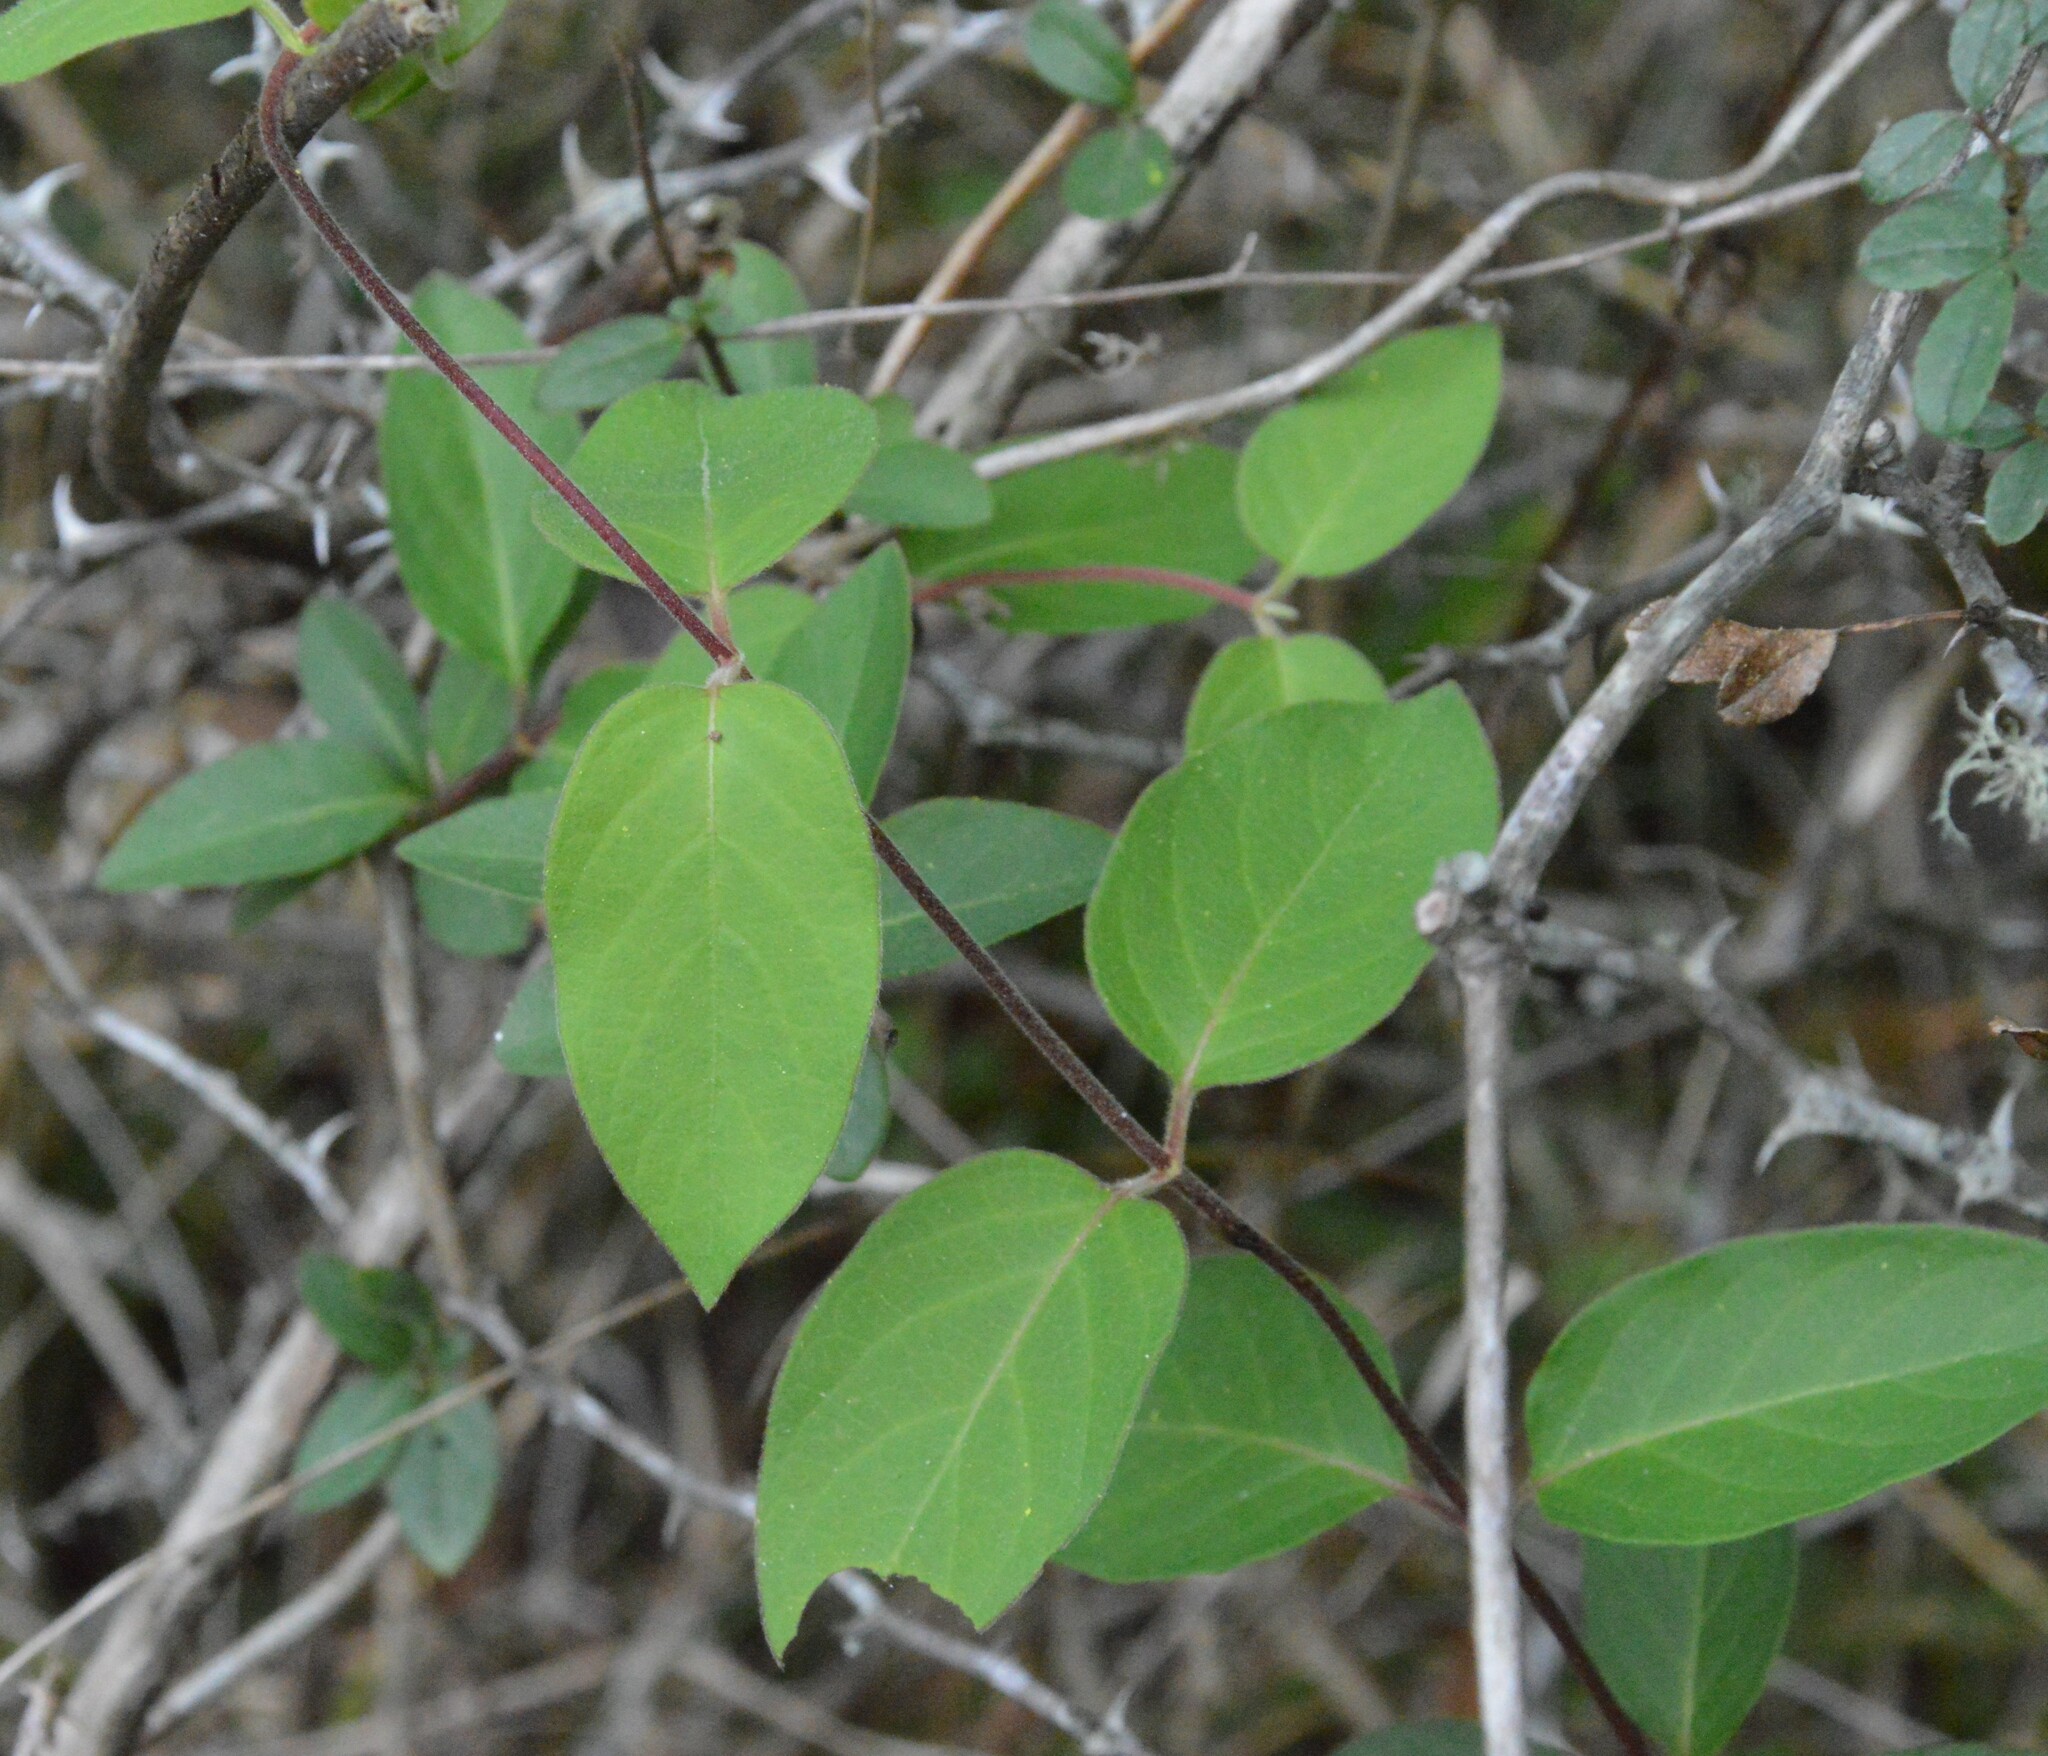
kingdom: Plantae
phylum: Tracheophyta
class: Magnoliopsida
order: Dipsacales
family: Caprifoliaceae
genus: Lonicera
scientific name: Lonicera japonica
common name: Japanese honeysuckle
